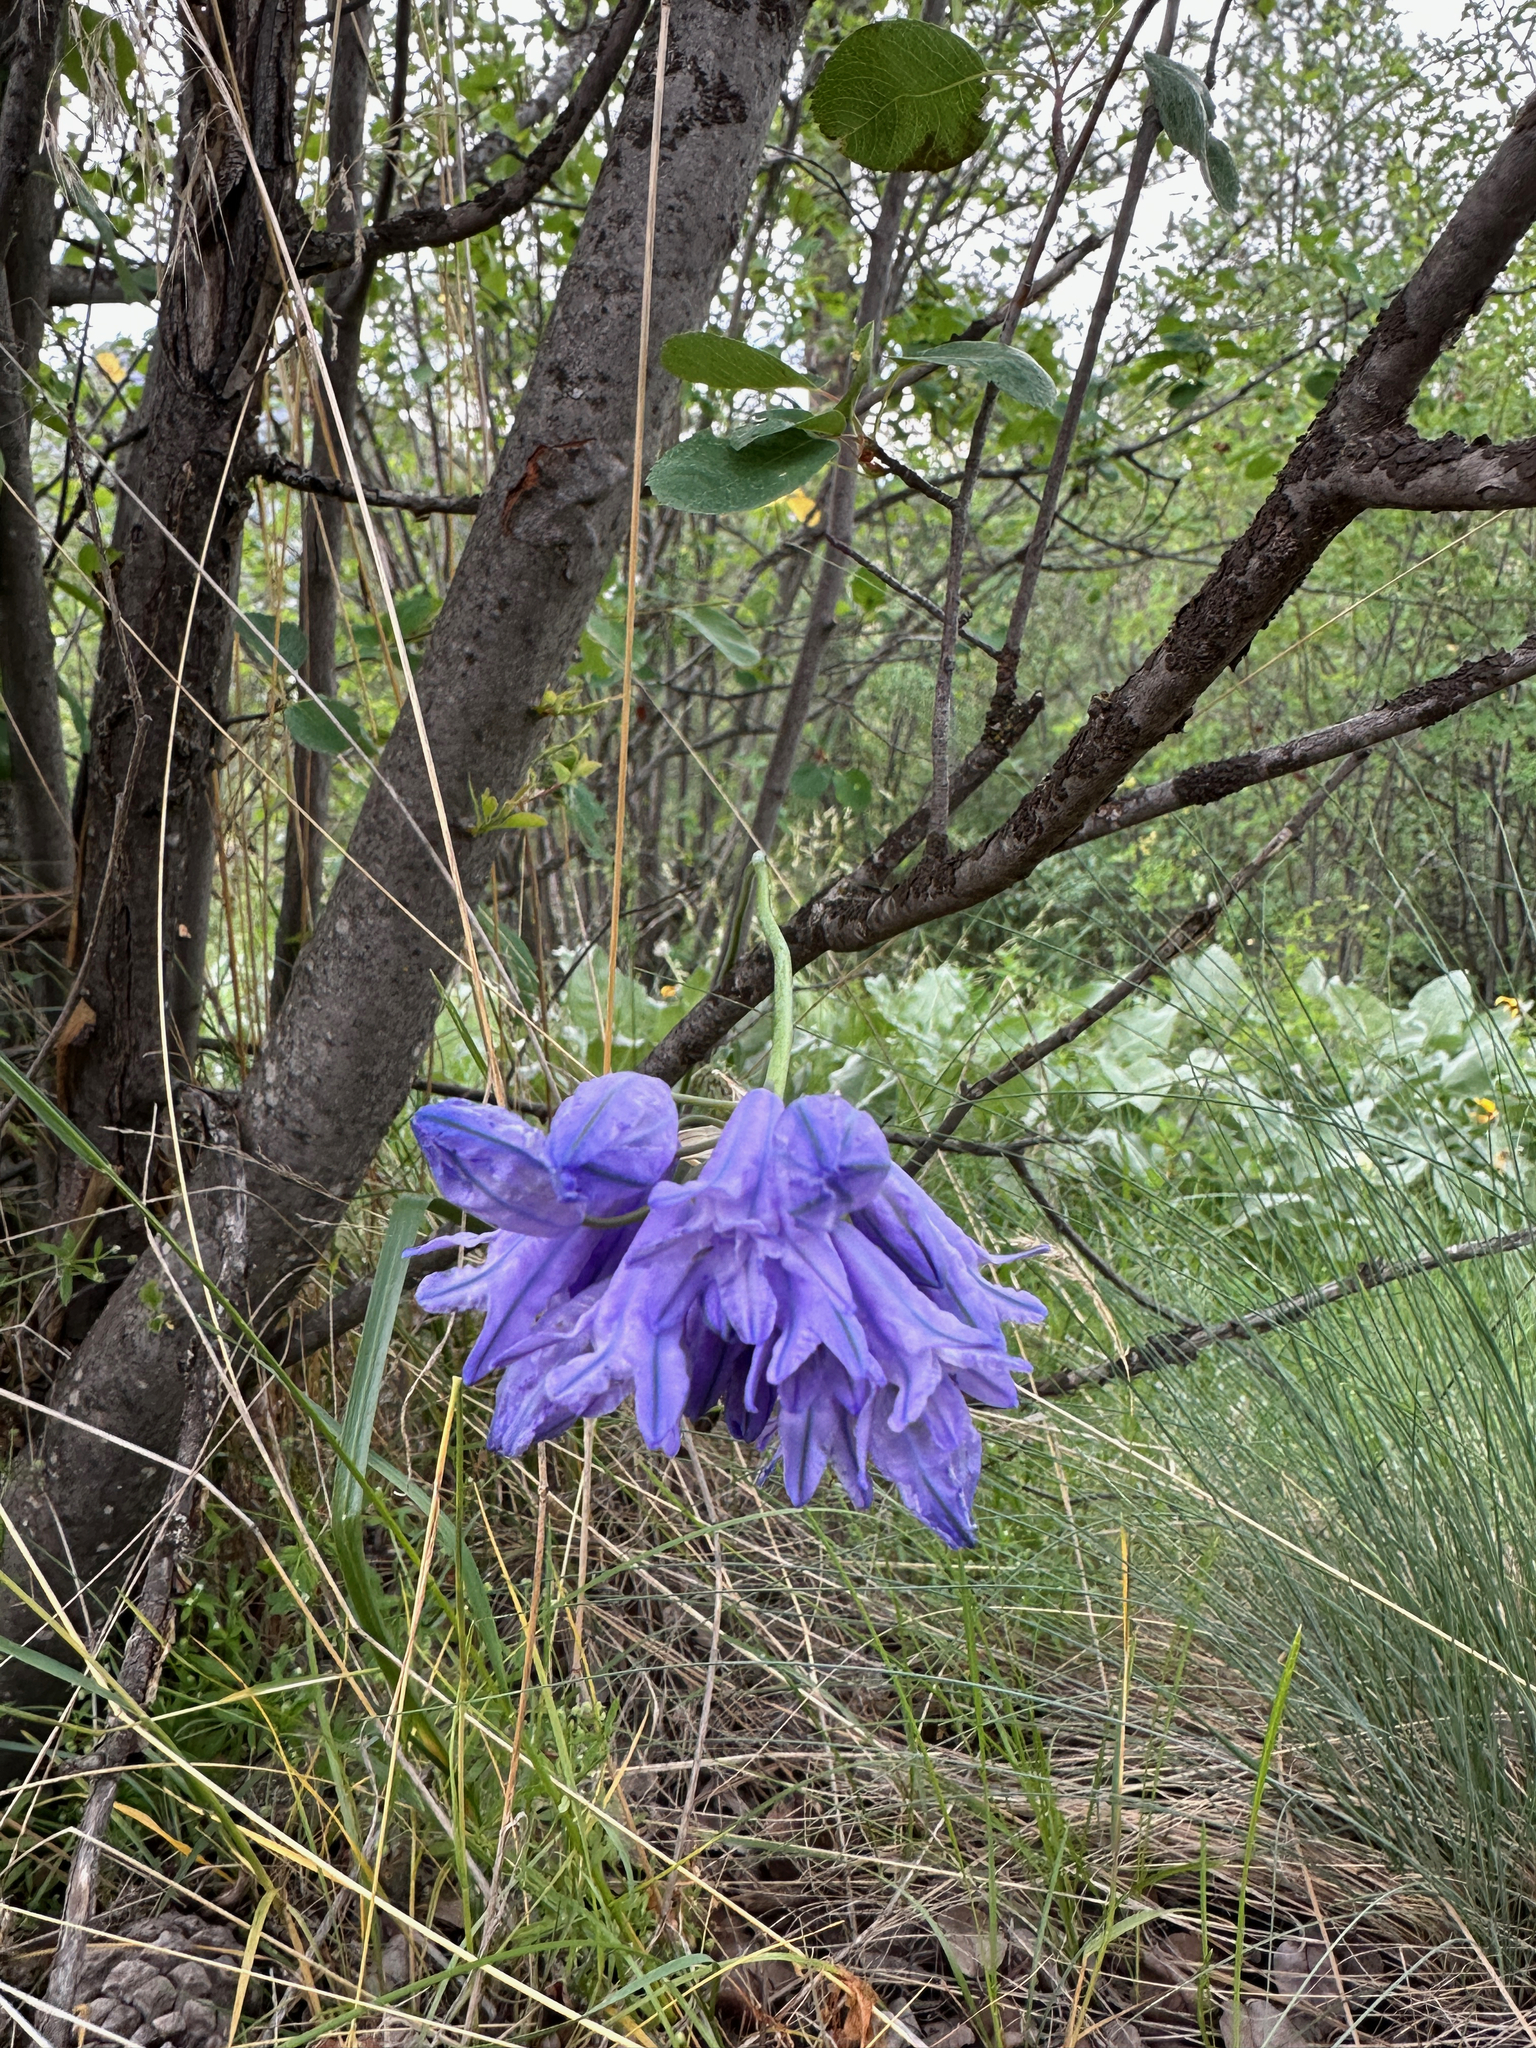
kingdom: Plantae
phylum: Tracheophyta
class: Liliopsida
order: Asparagales
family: Asparagaceae
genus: Triteleia
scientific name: Triteleia grandiflora
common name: Wild hyacinth
